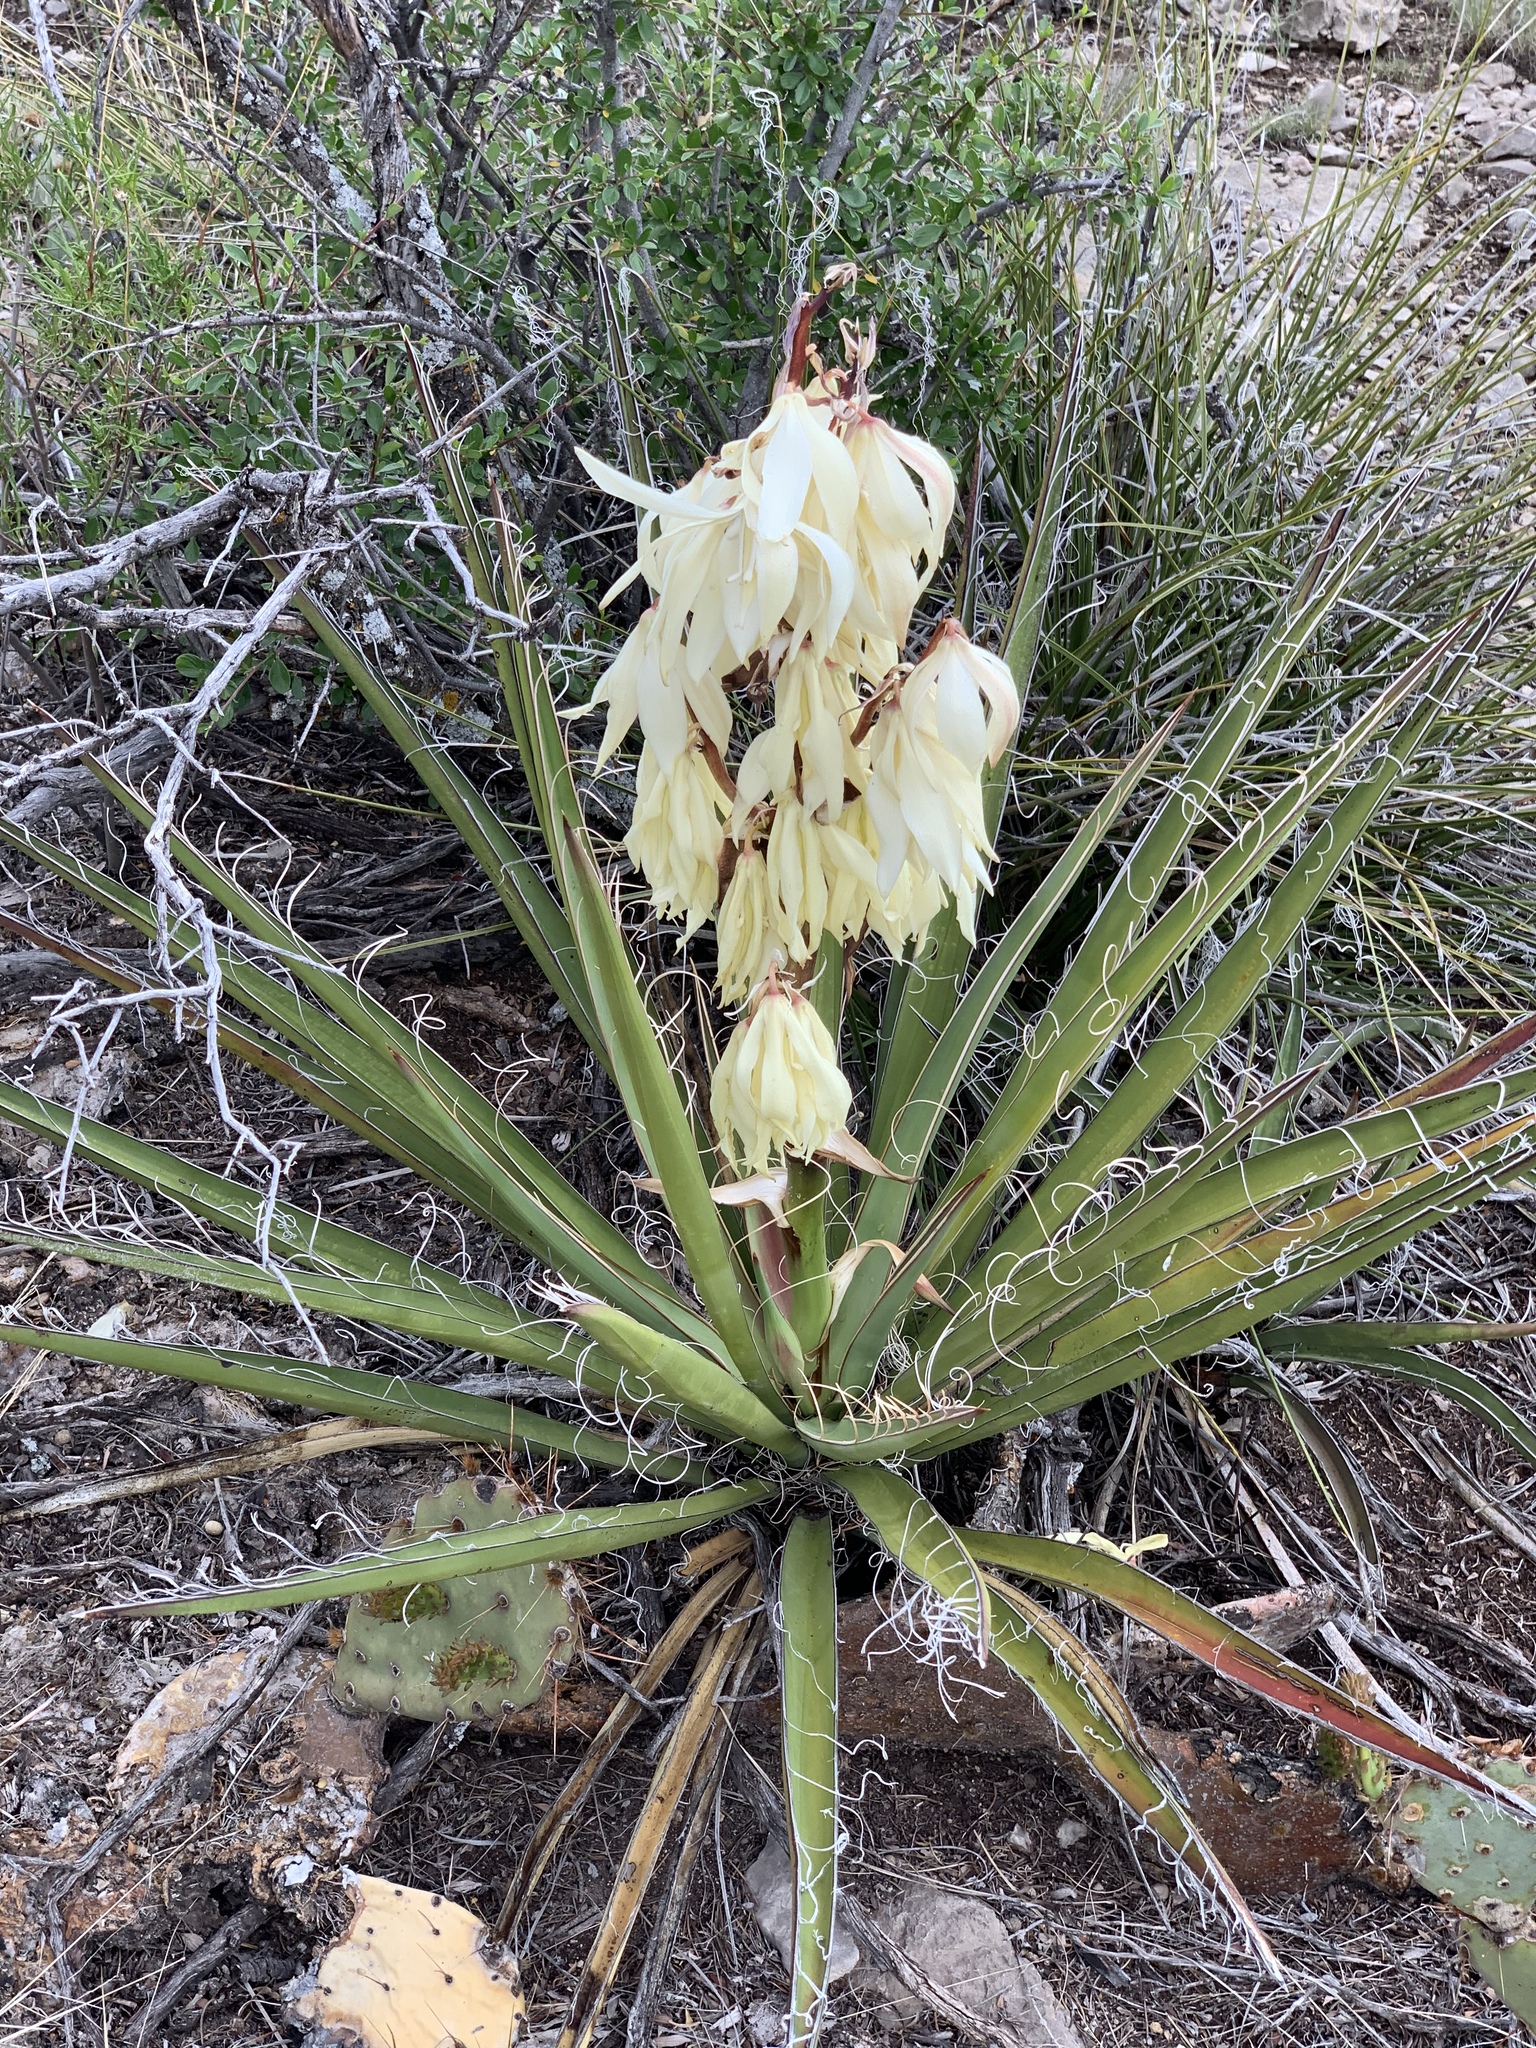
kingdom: Plantae
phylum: Tracheophyta
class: Liliopsida
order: Asparagales
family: Asparagaceae
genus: Yucca
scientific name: Yucca baccata
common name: Banana yucca
